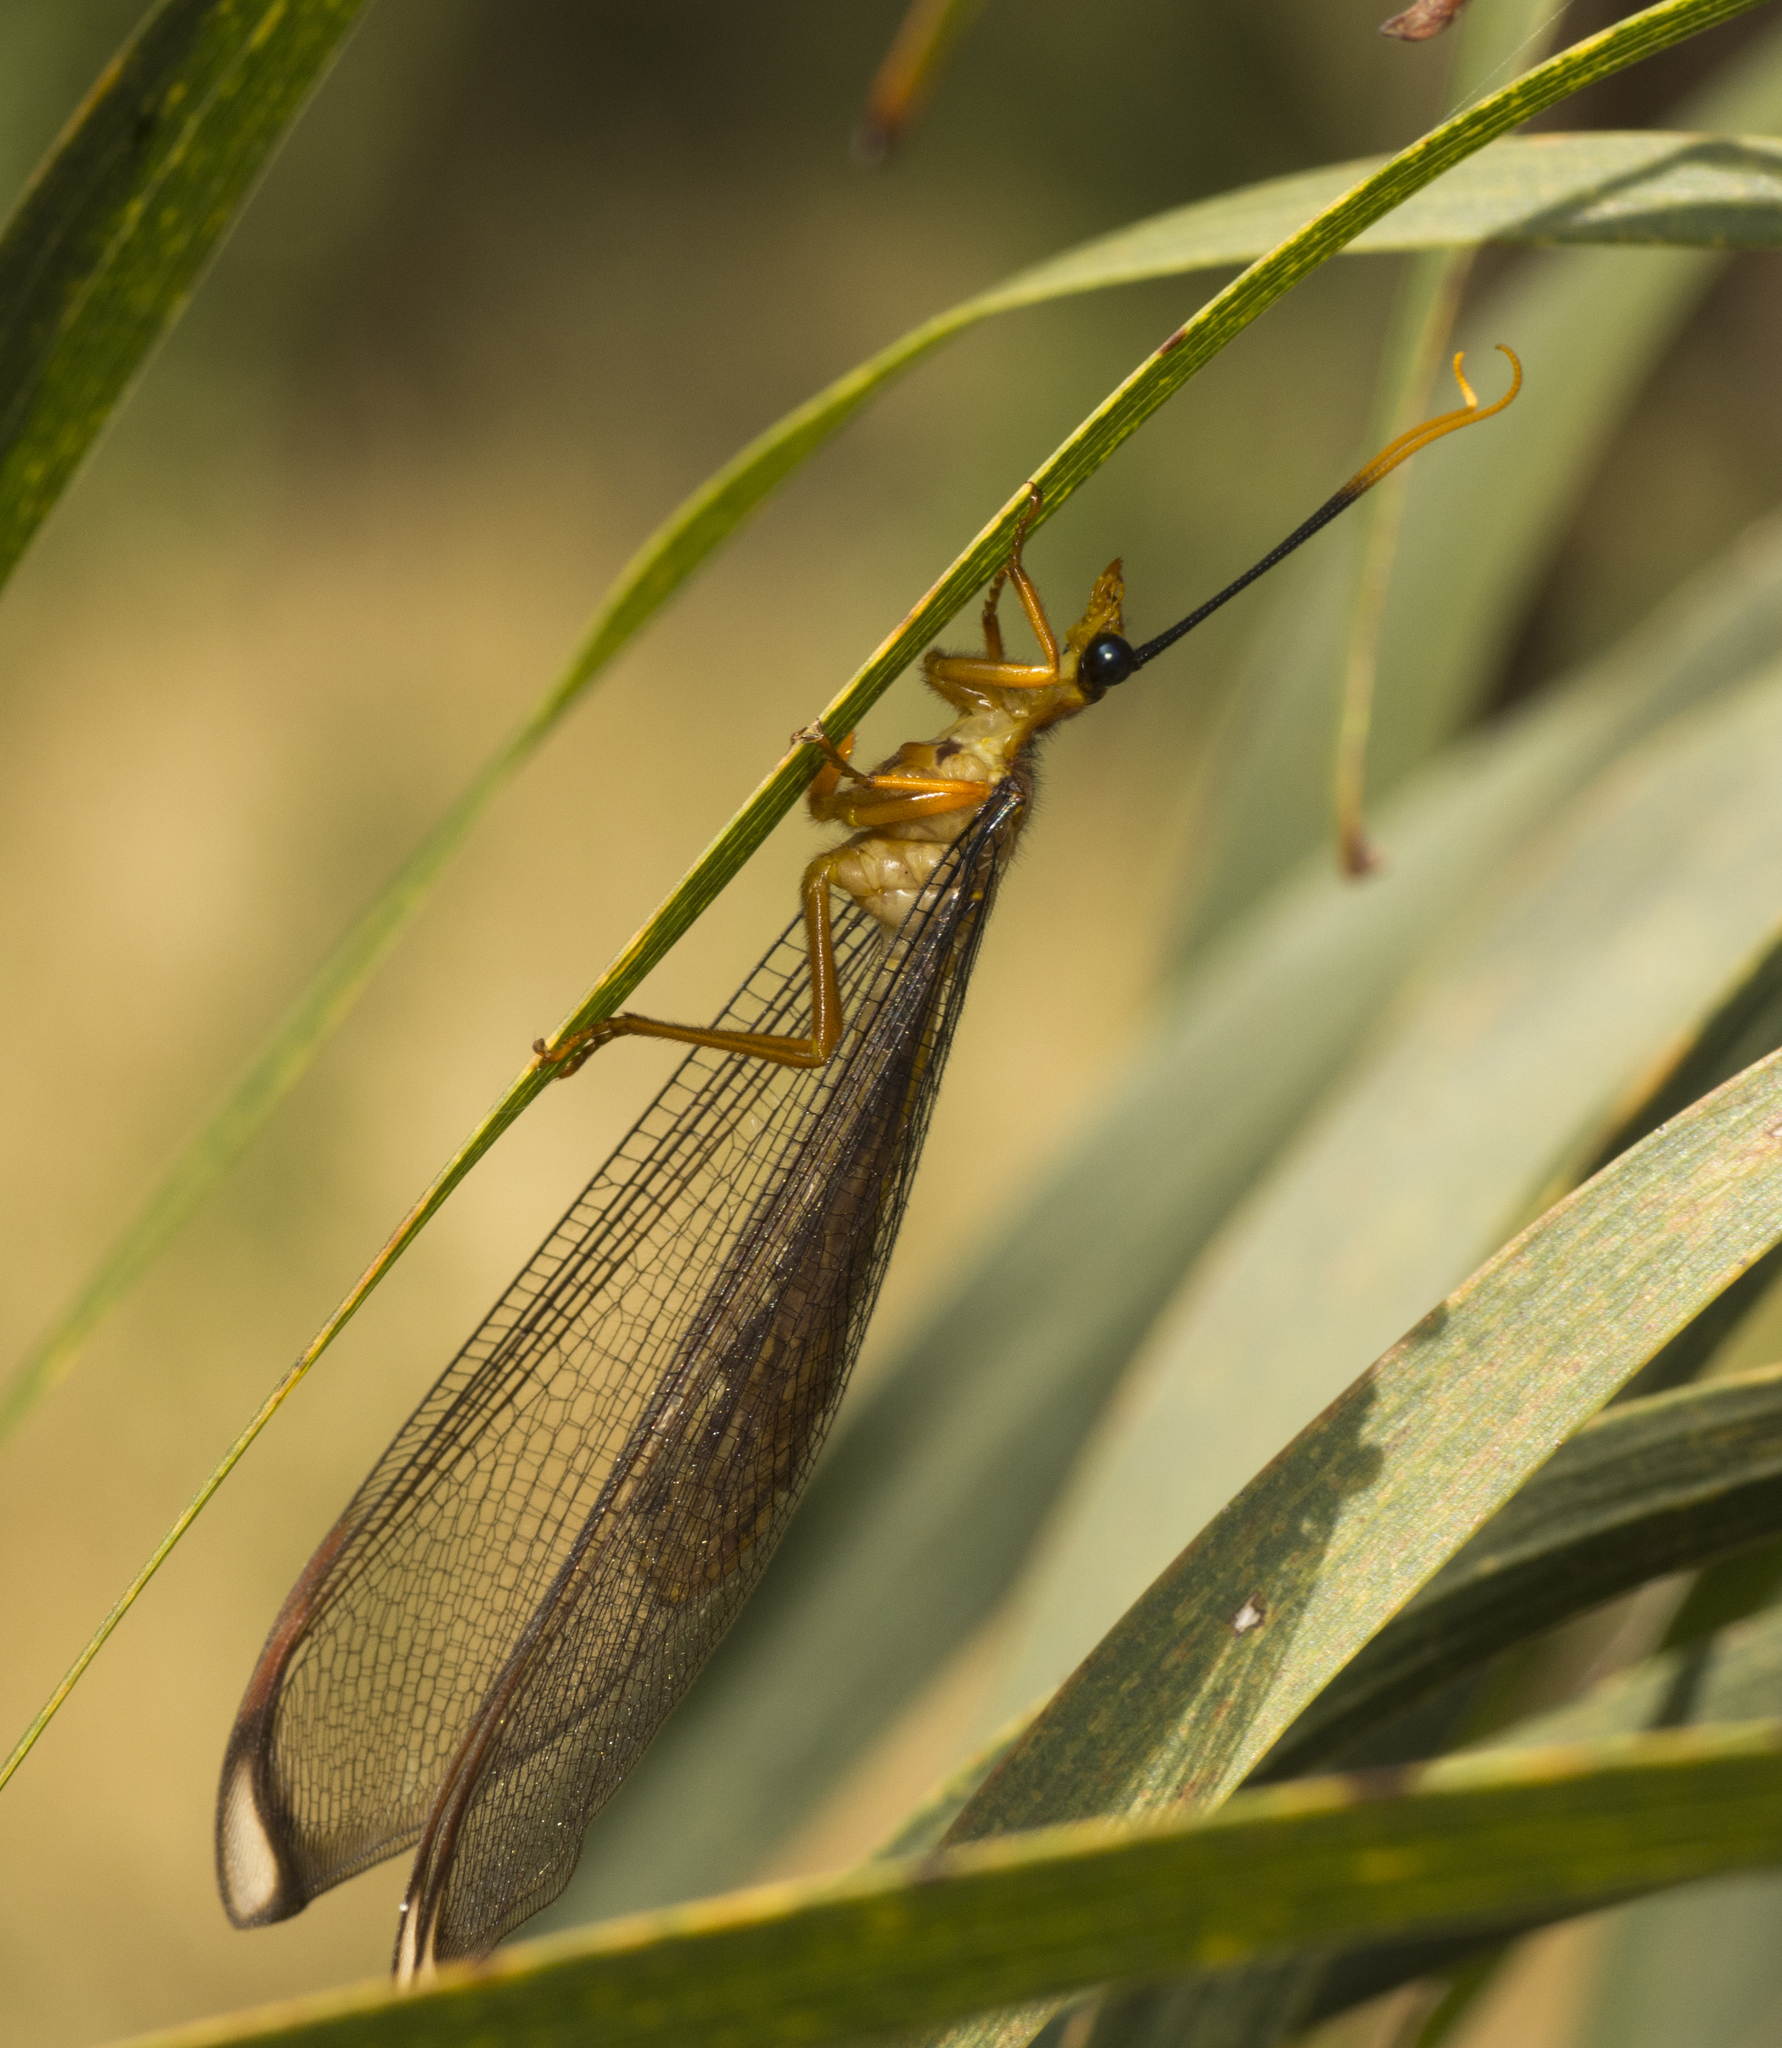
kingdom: Animalia
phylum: Arthropoda
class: Insecta
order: Neuroptera
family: Nymphidae
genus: Nymphes
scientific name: Nymphes myrmeleonoides
